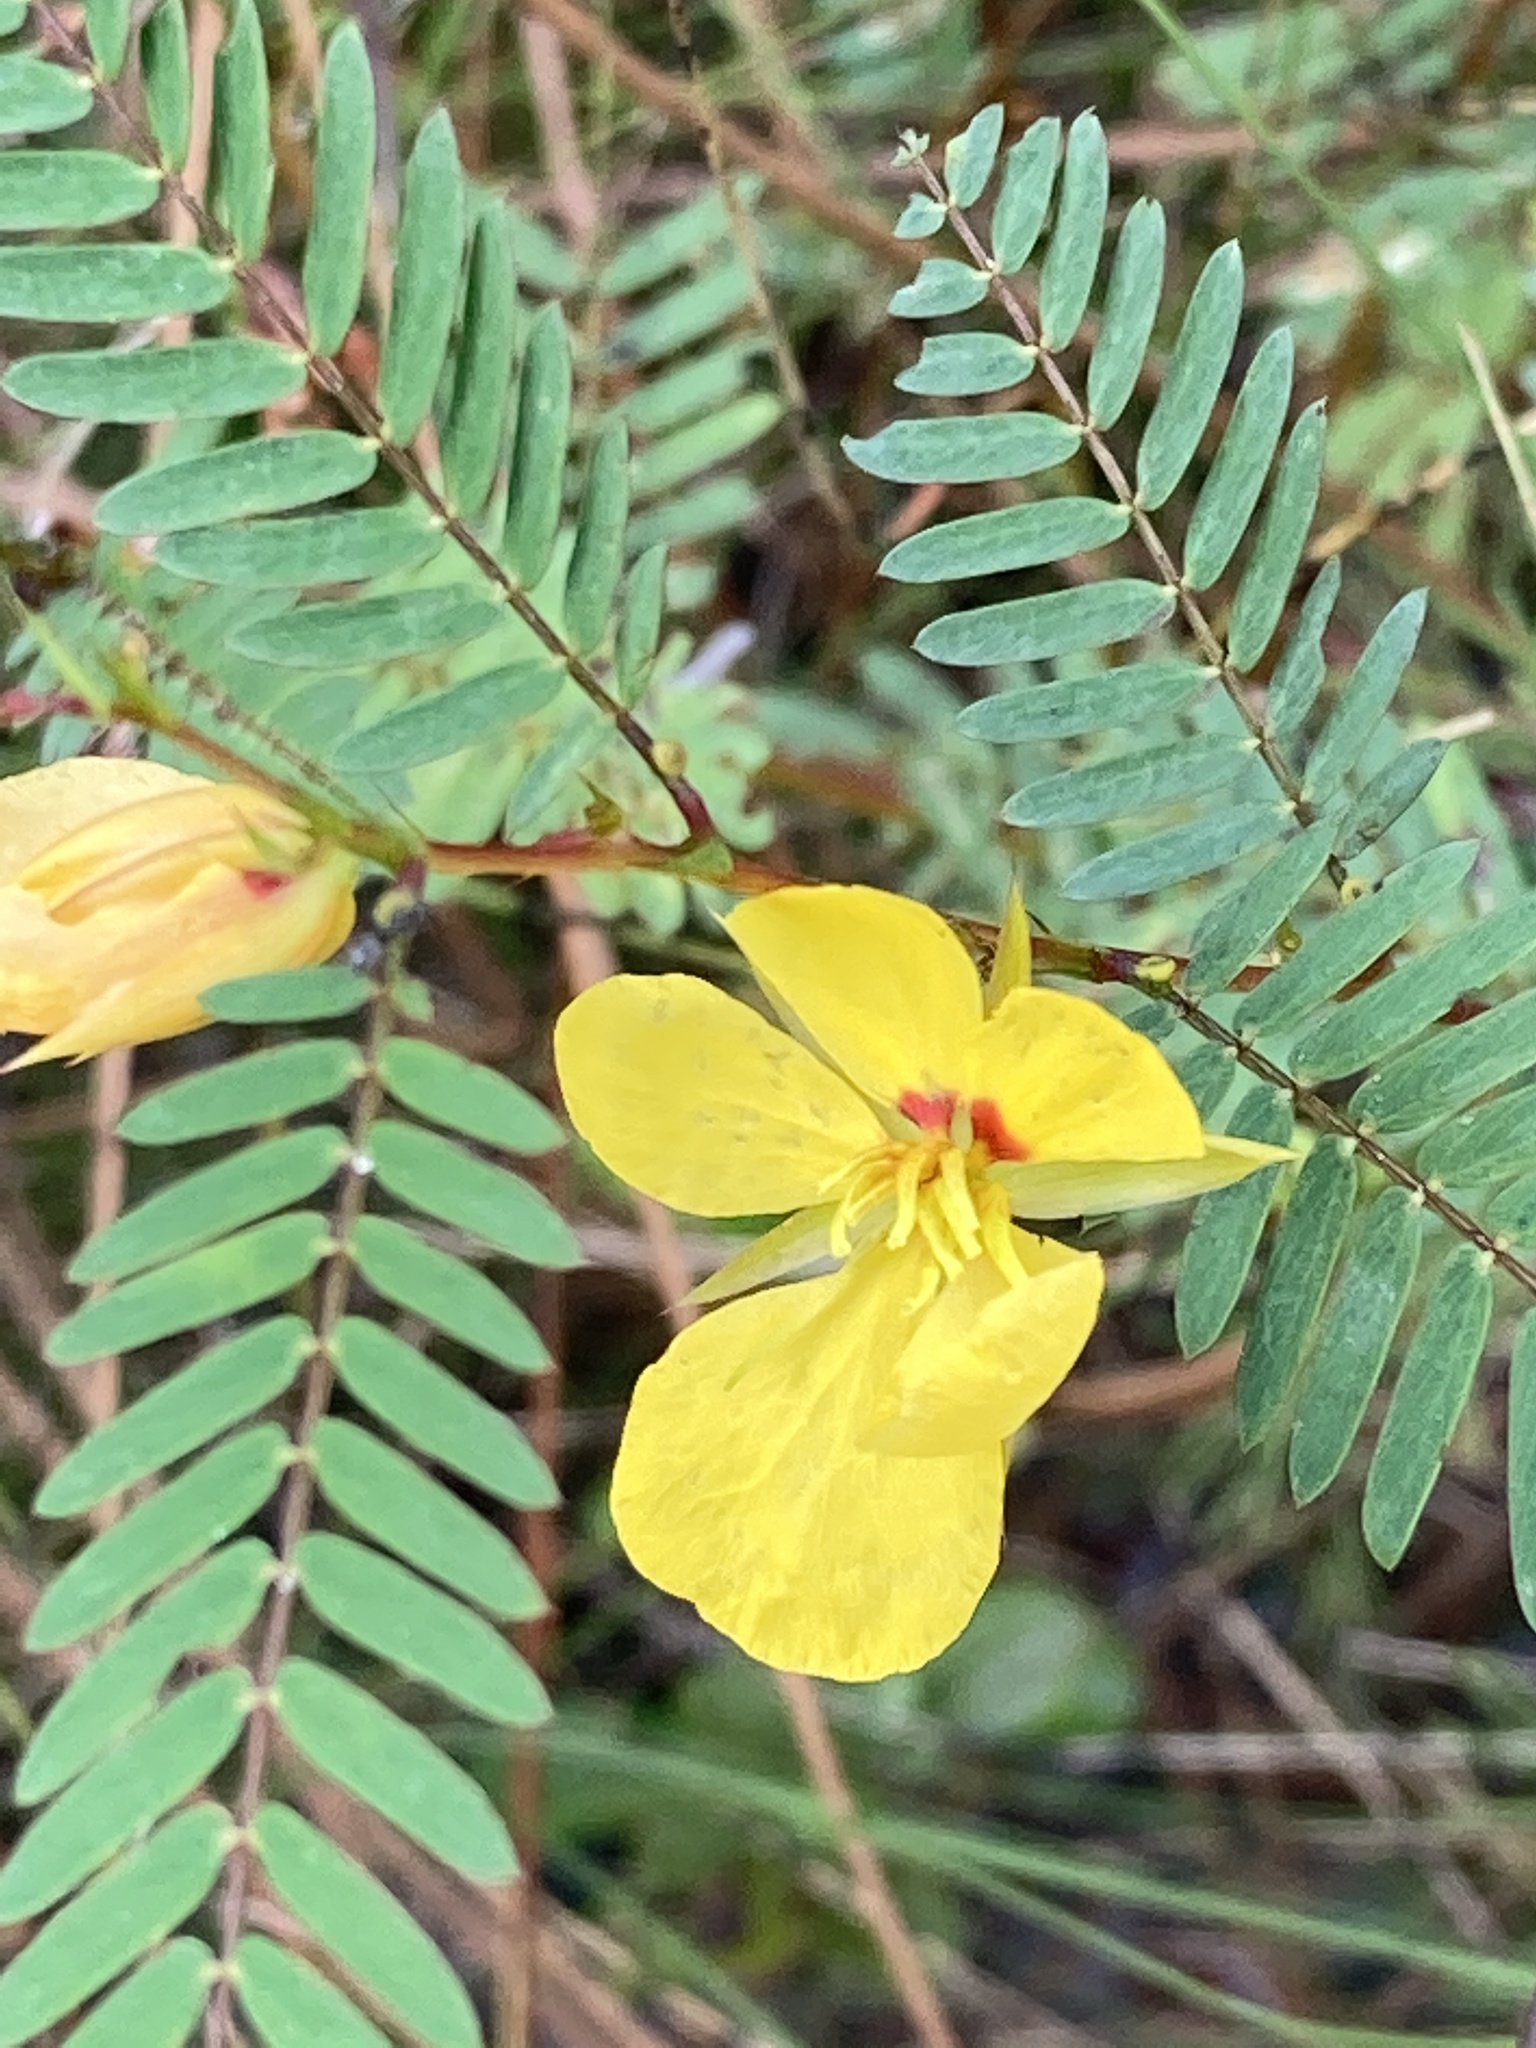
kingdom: Plantae
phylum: Tracheophyta
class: Magnoliopsida
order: Fabales
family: Fabaceae
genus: Chamaecrista
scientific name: Chamaecrista fasciculata
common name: Golden cassia
